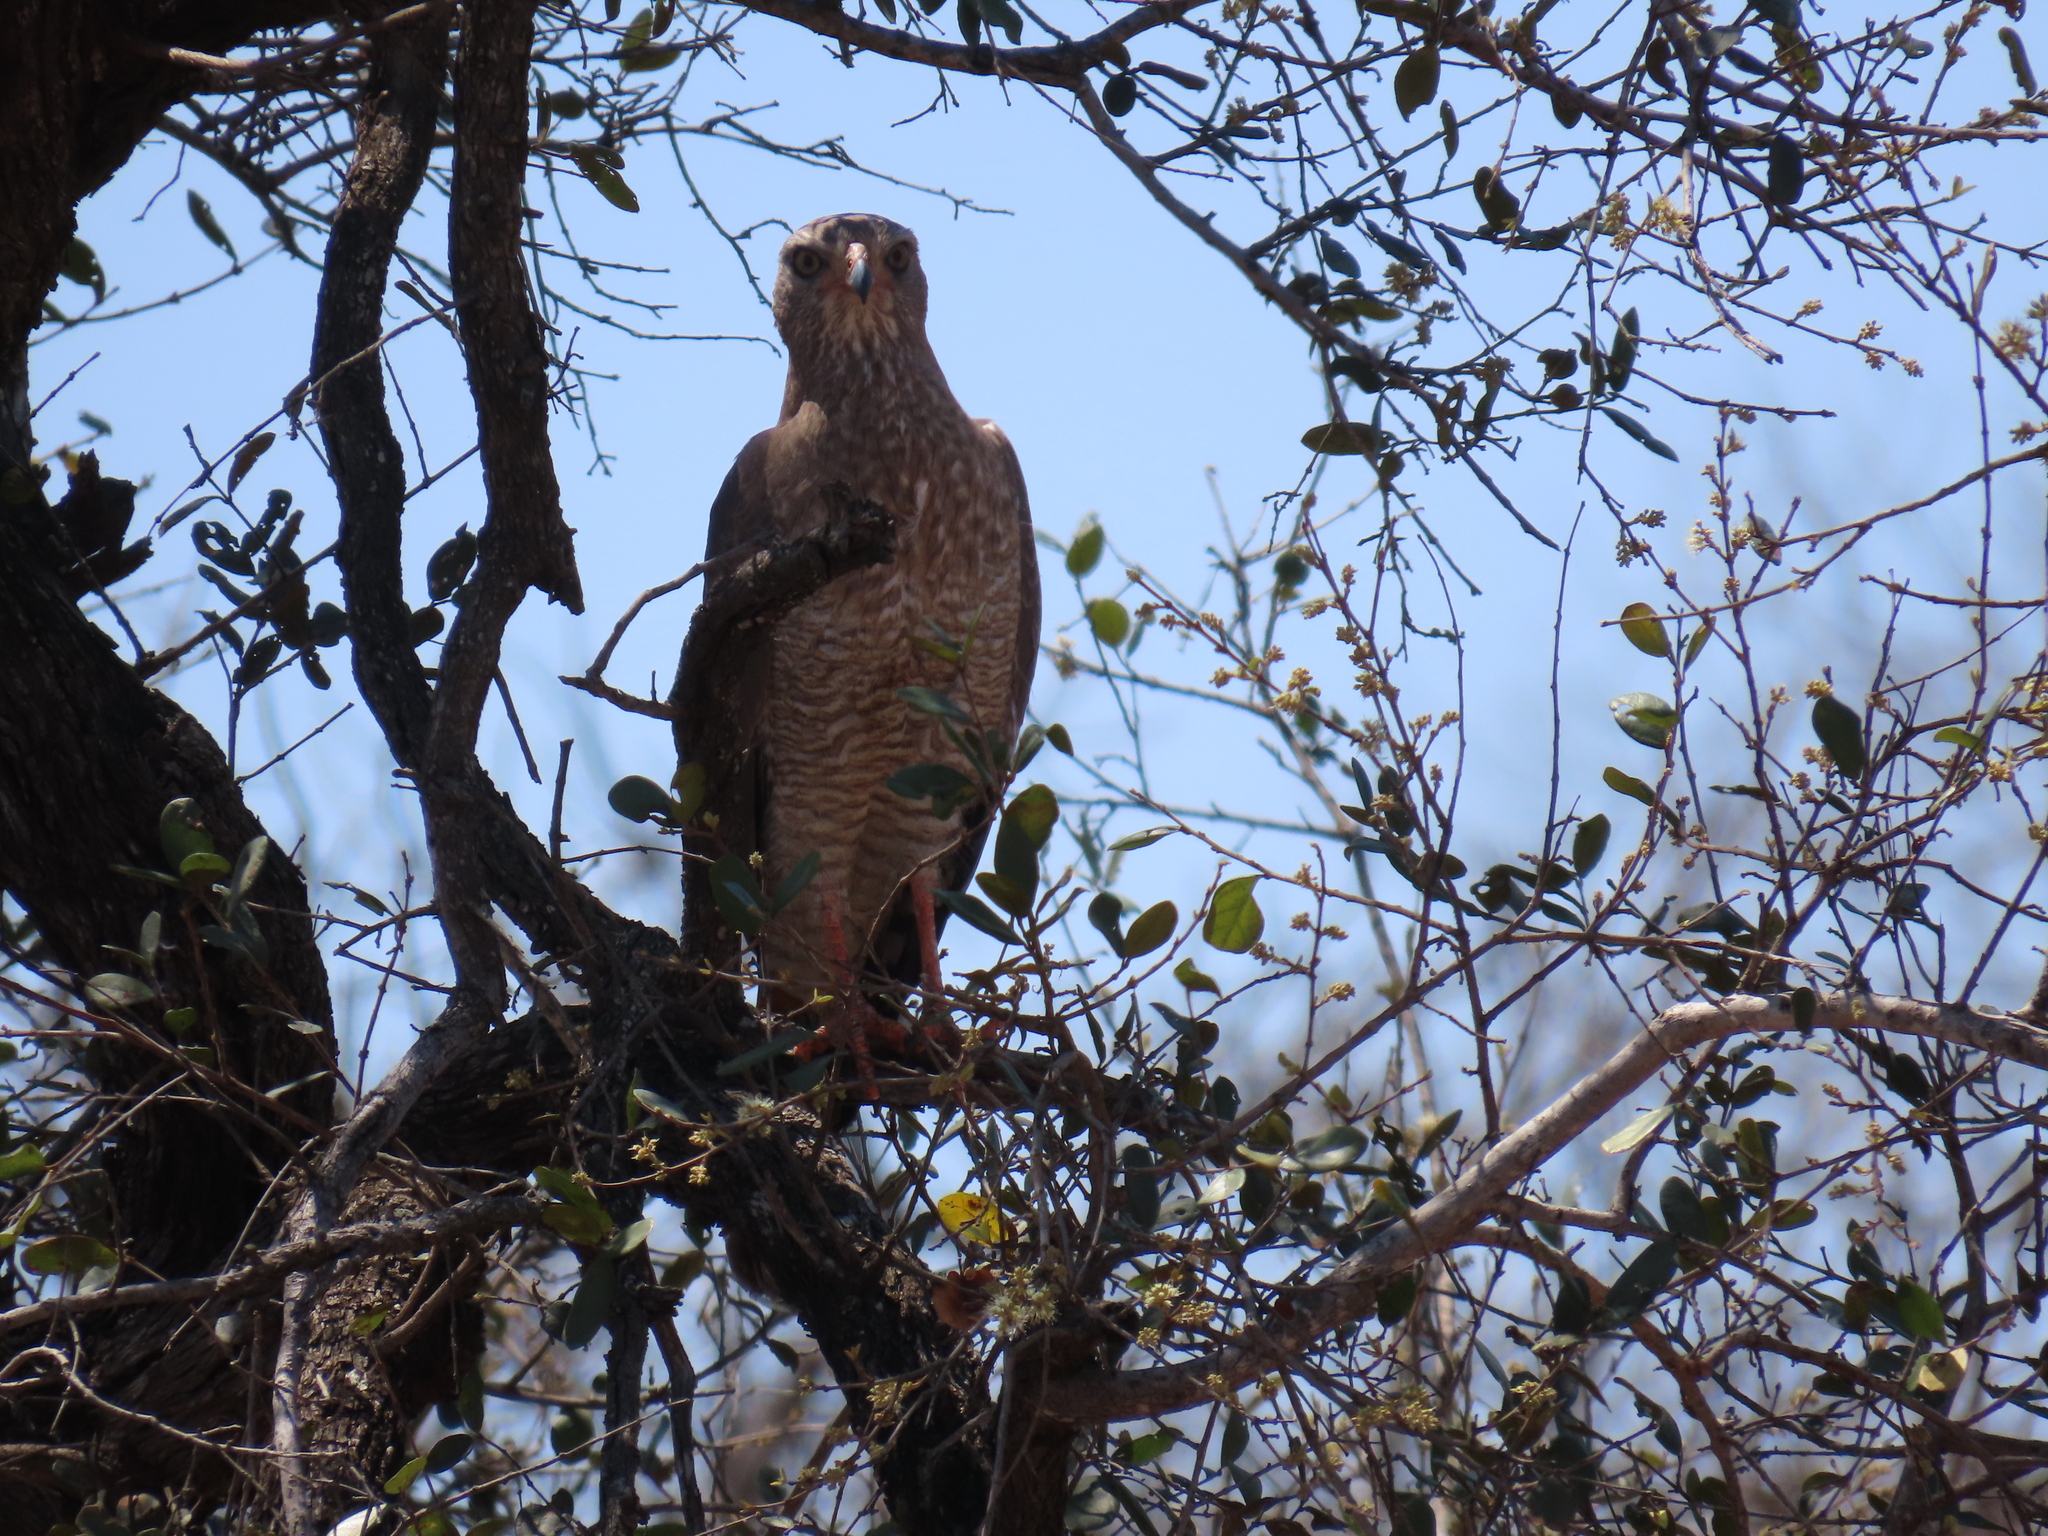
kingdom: Animalia
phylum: Chordata
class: Aves
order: Accipitriformes
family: Accipitridae
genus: Melierax
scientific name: Melierax metabates
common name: Dark chanting-goshawk
